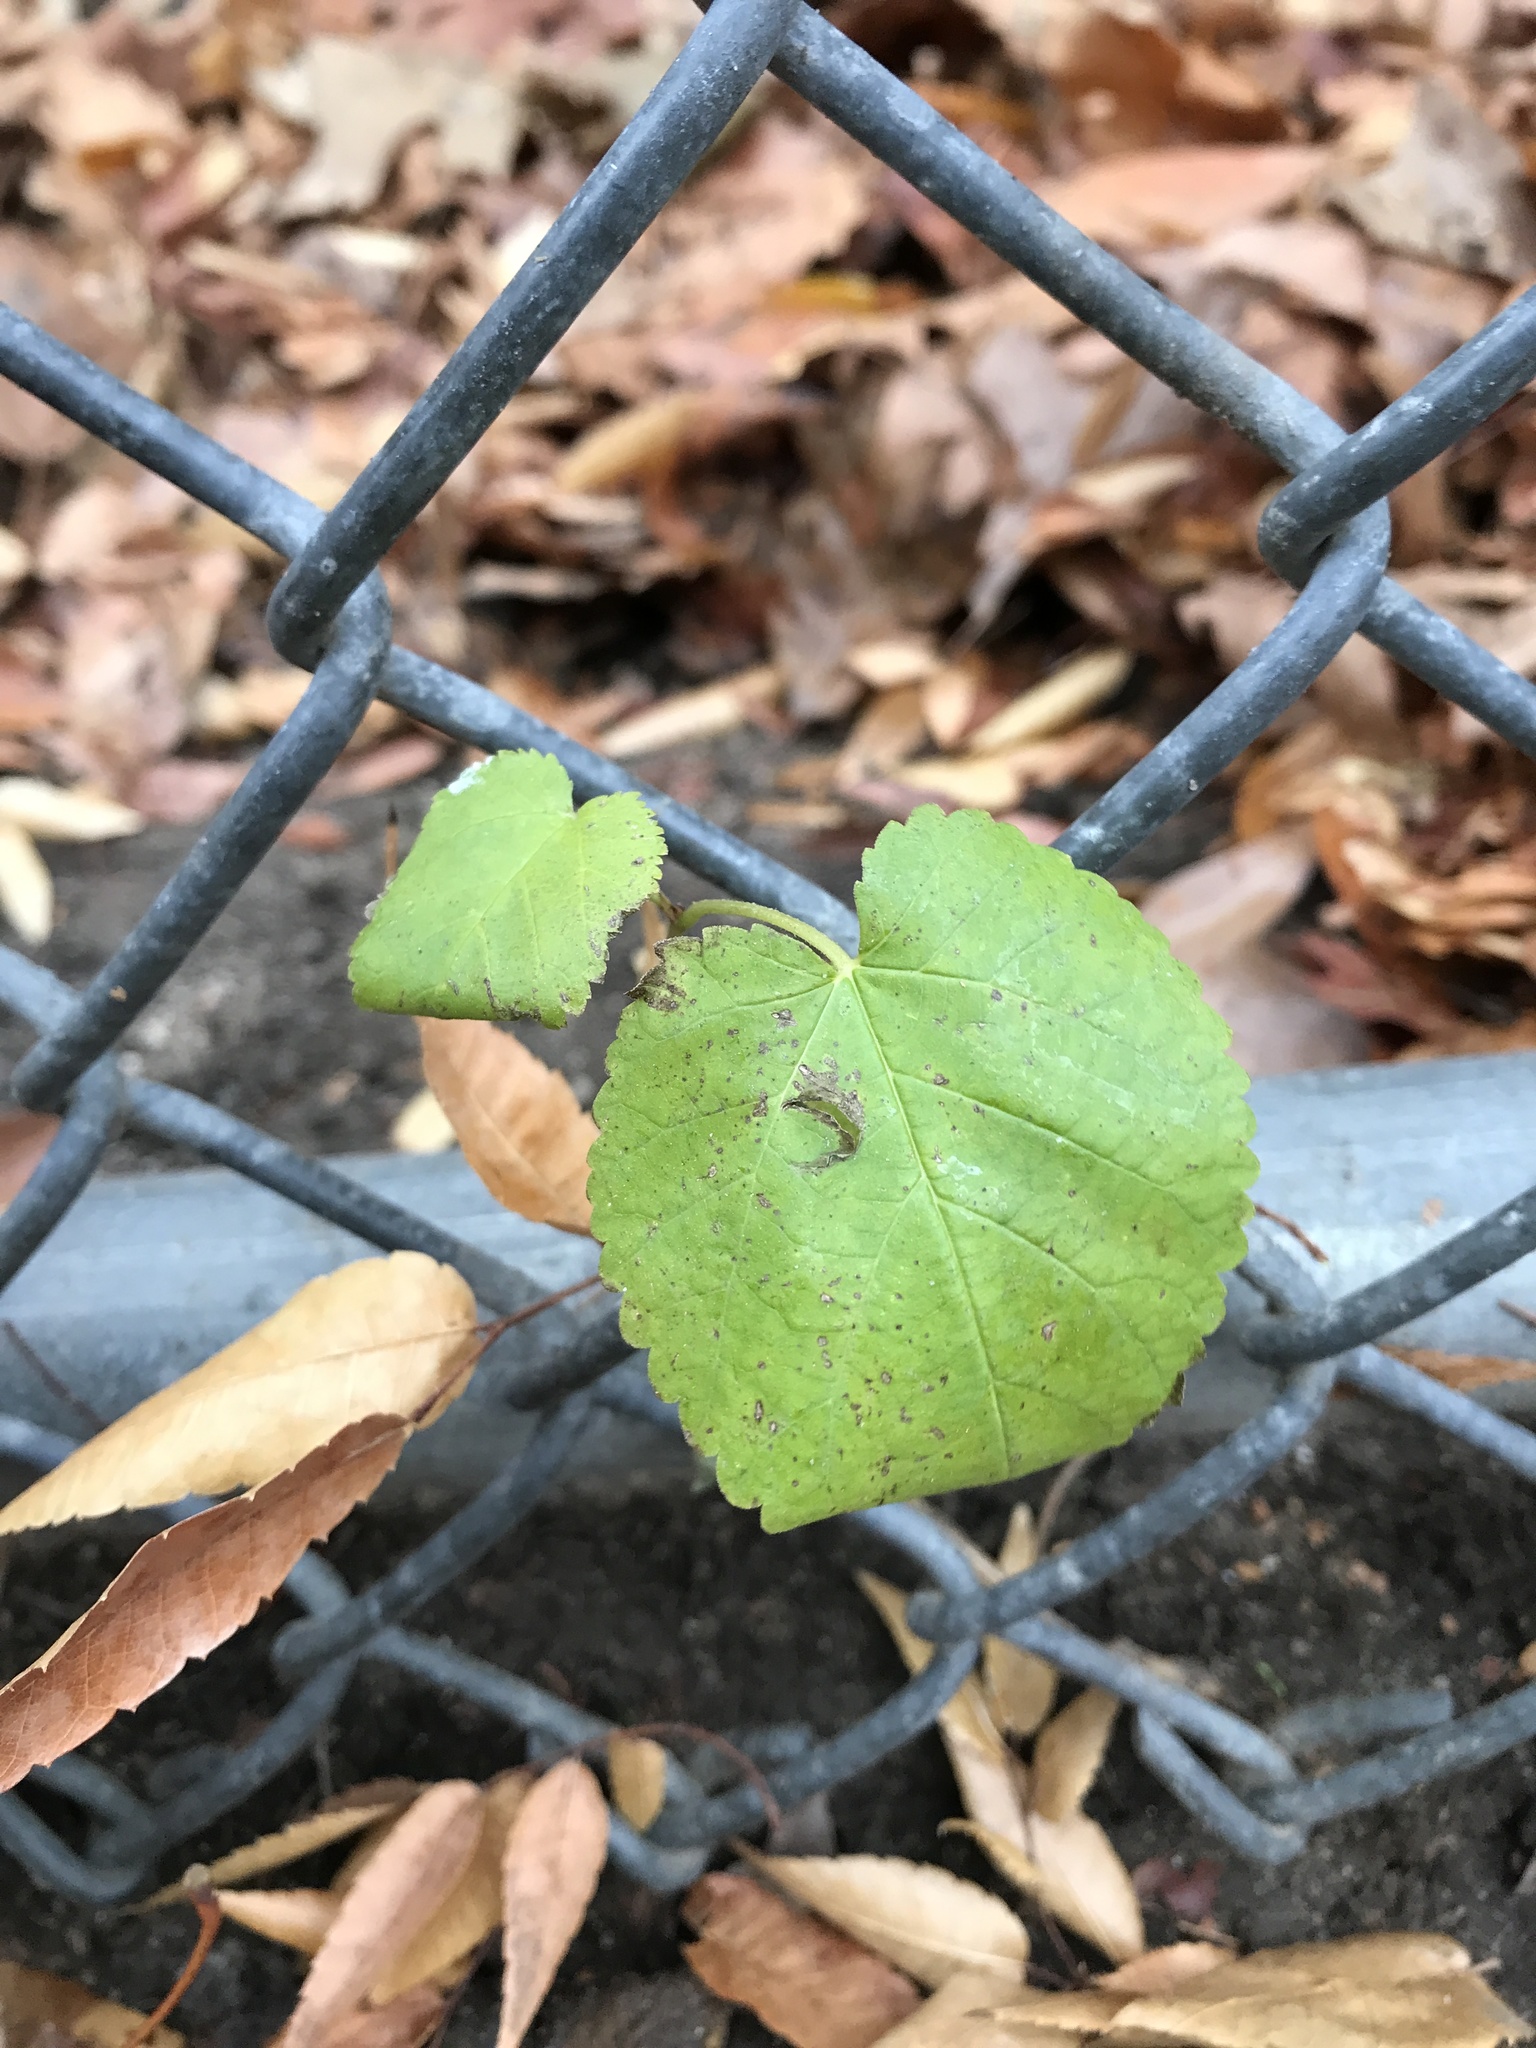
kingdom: Plantae
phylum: Tracheophyta
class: Magnoliopsida
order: Rosales
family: Moraceae
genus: Morus
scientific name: Morus alba
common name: White mulberry
